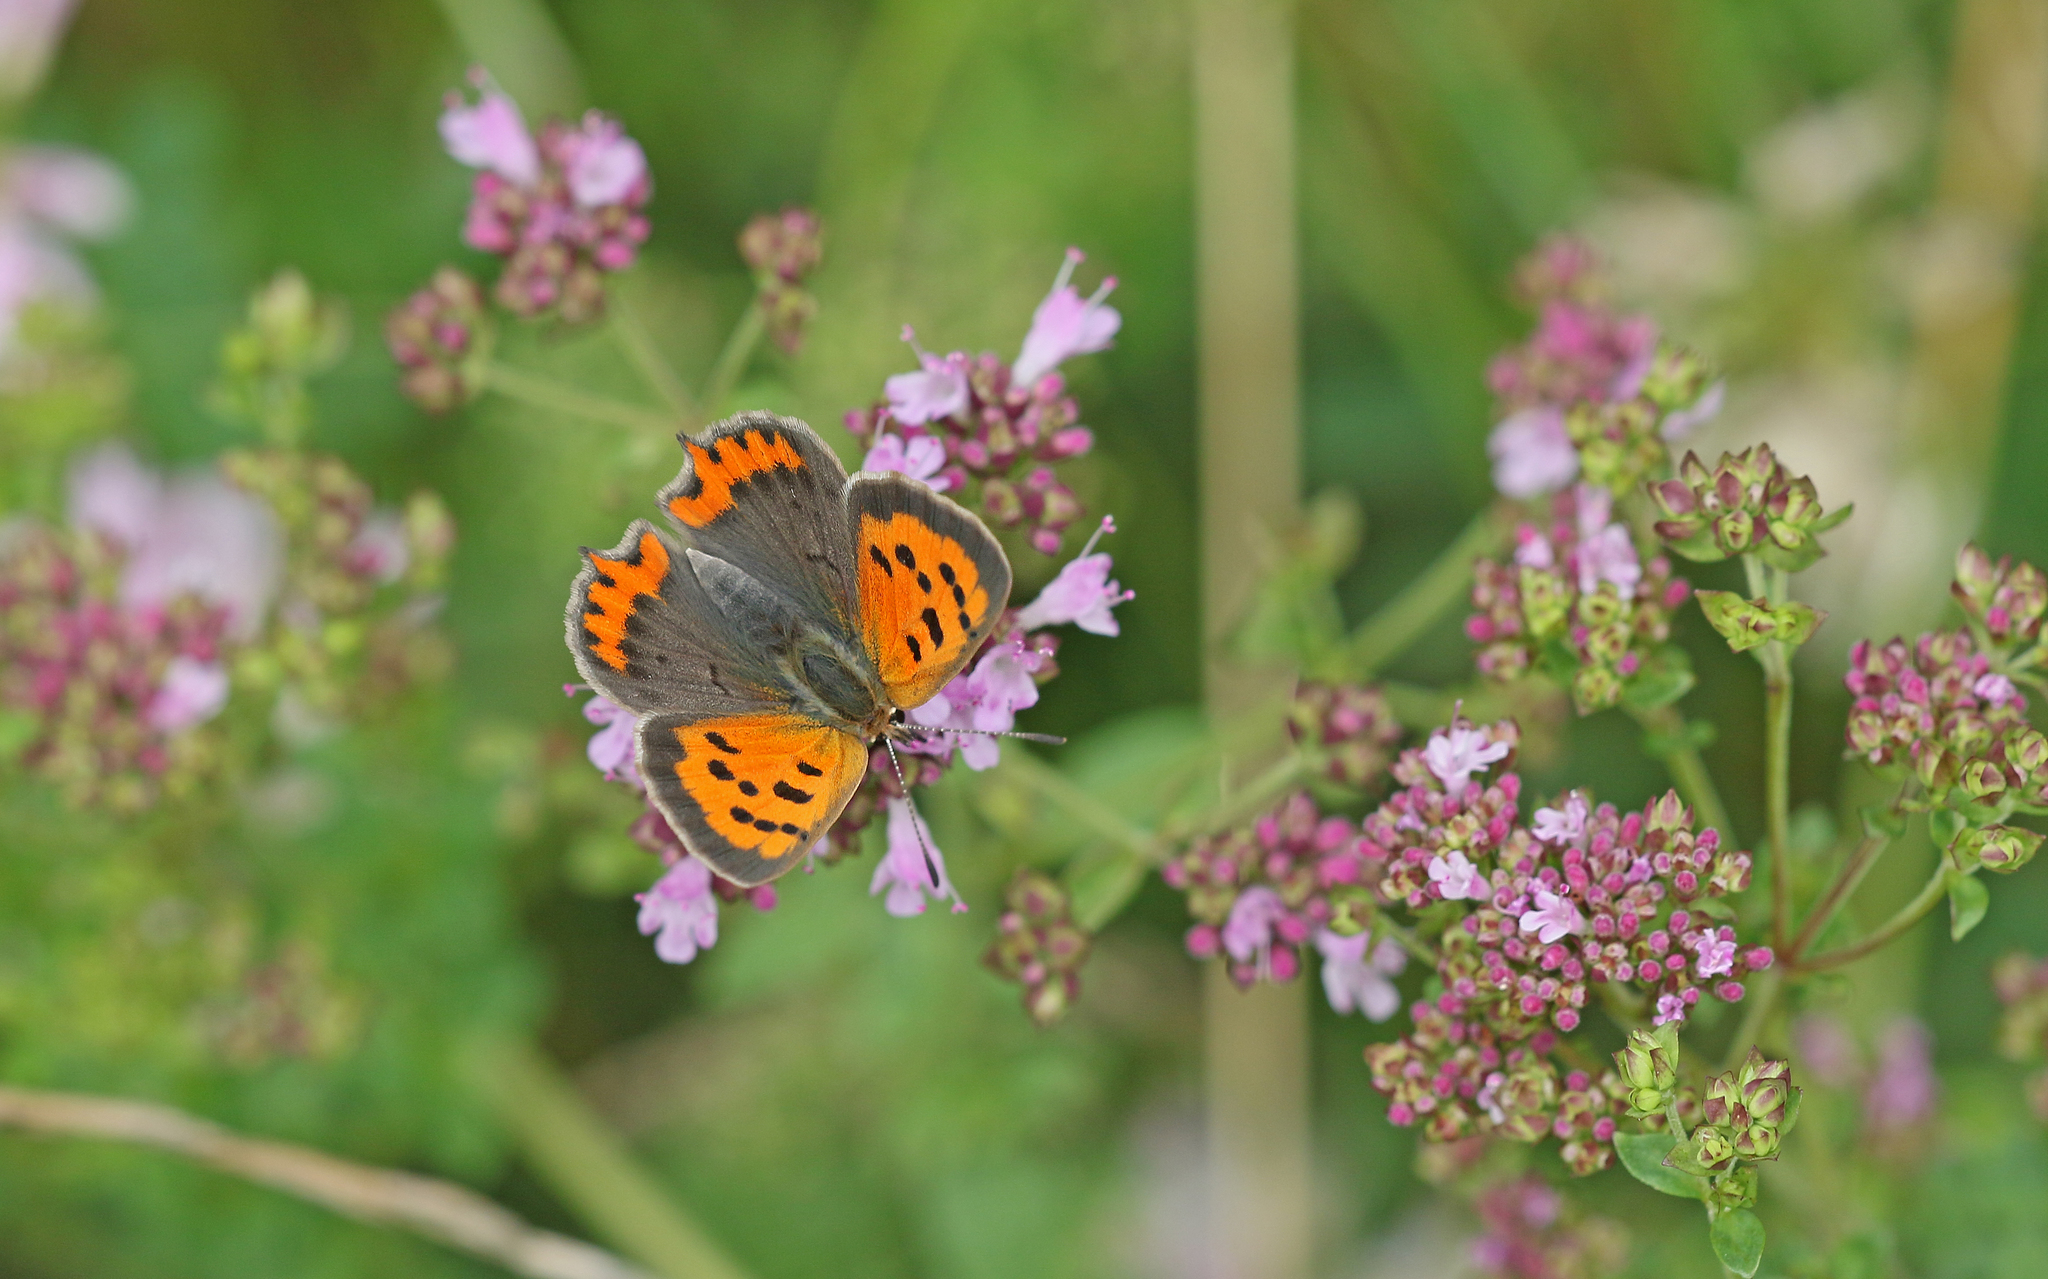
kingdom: Animalia
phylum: Arthropoda
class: Insecta
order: Lepidoptera
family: Lycaenidae
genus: Lycaena
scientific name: Lycaena phlaeas
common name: Small copper
